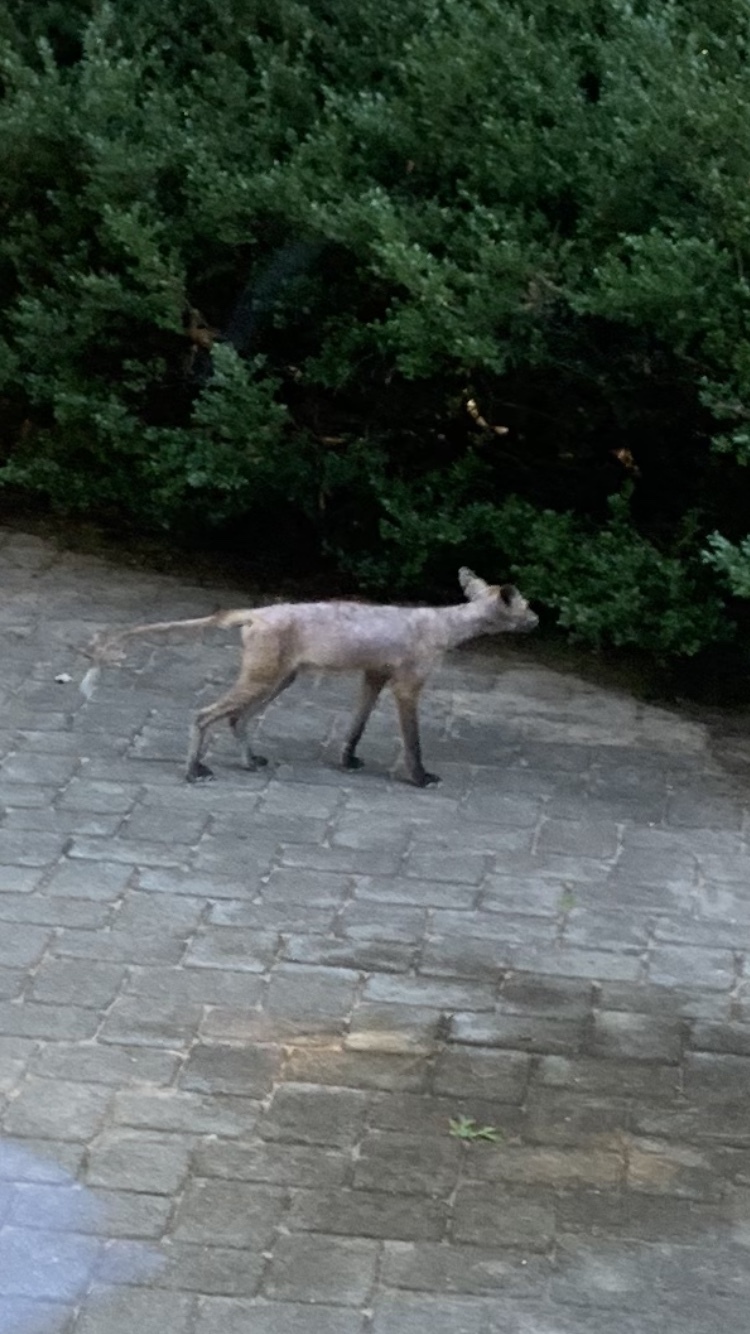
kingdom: Animalia
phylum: Chordata
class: Mammalia
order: Carnivora
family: Canidae
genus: Vulpes
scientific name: Vulpes vulpes
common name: Red fox
